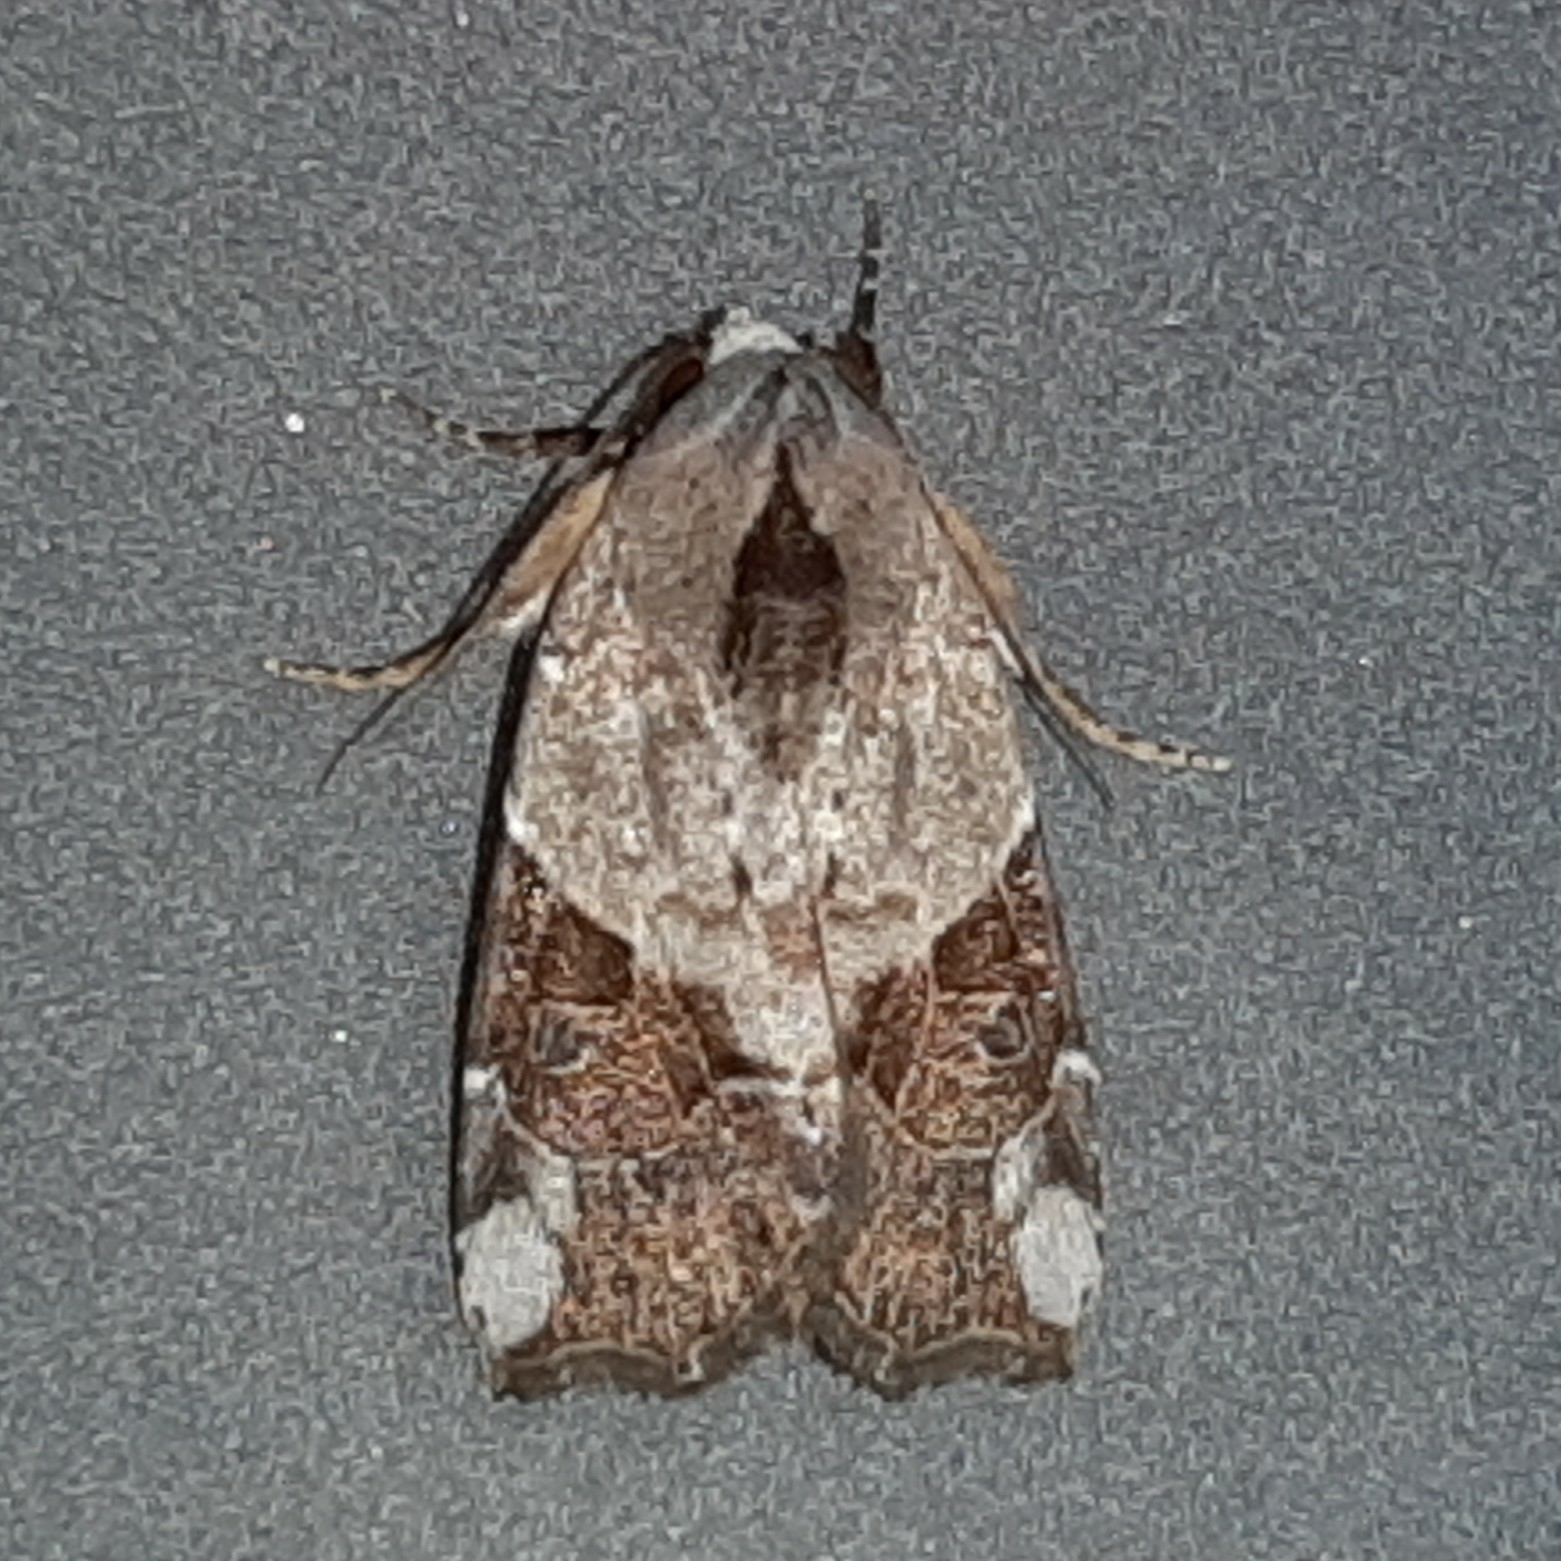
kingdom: Animalia
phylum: Arthropoda
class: Insecta
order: Lepidoptera
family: Noctuidae
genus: Gonodes
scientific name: Gonodes liquida
